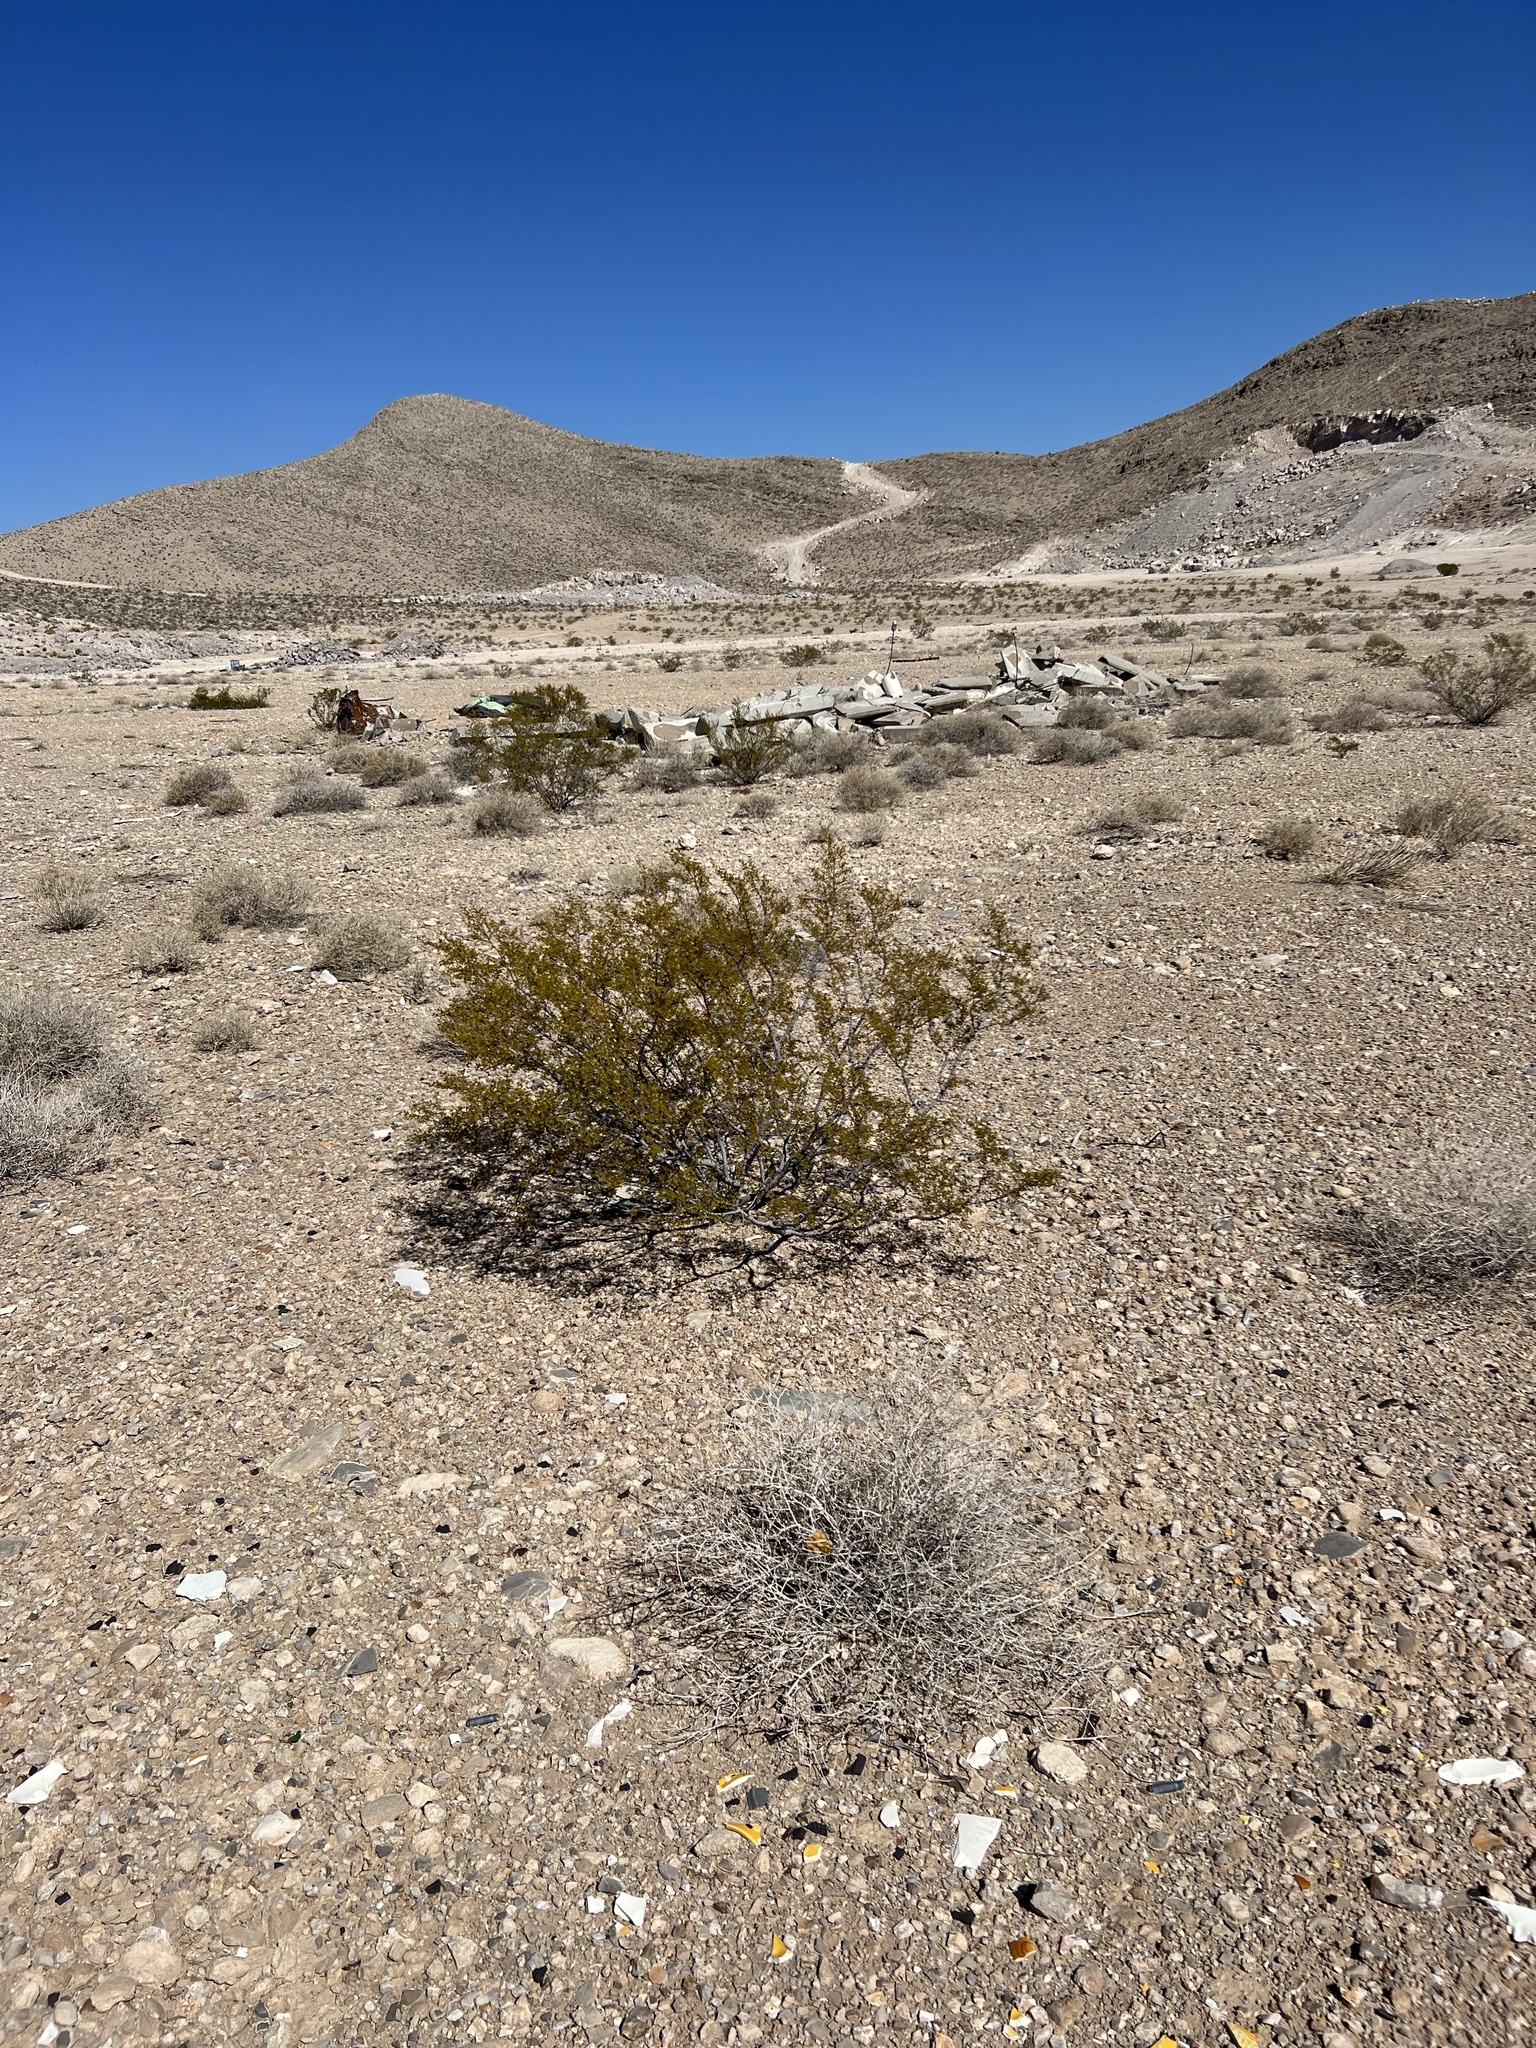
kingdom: Plantae
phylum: Tracheophyta
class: Magnoliopsida
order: Zygophyllales
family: Zygophyllaceae
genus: Larrea
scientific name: Larrea tridentata
